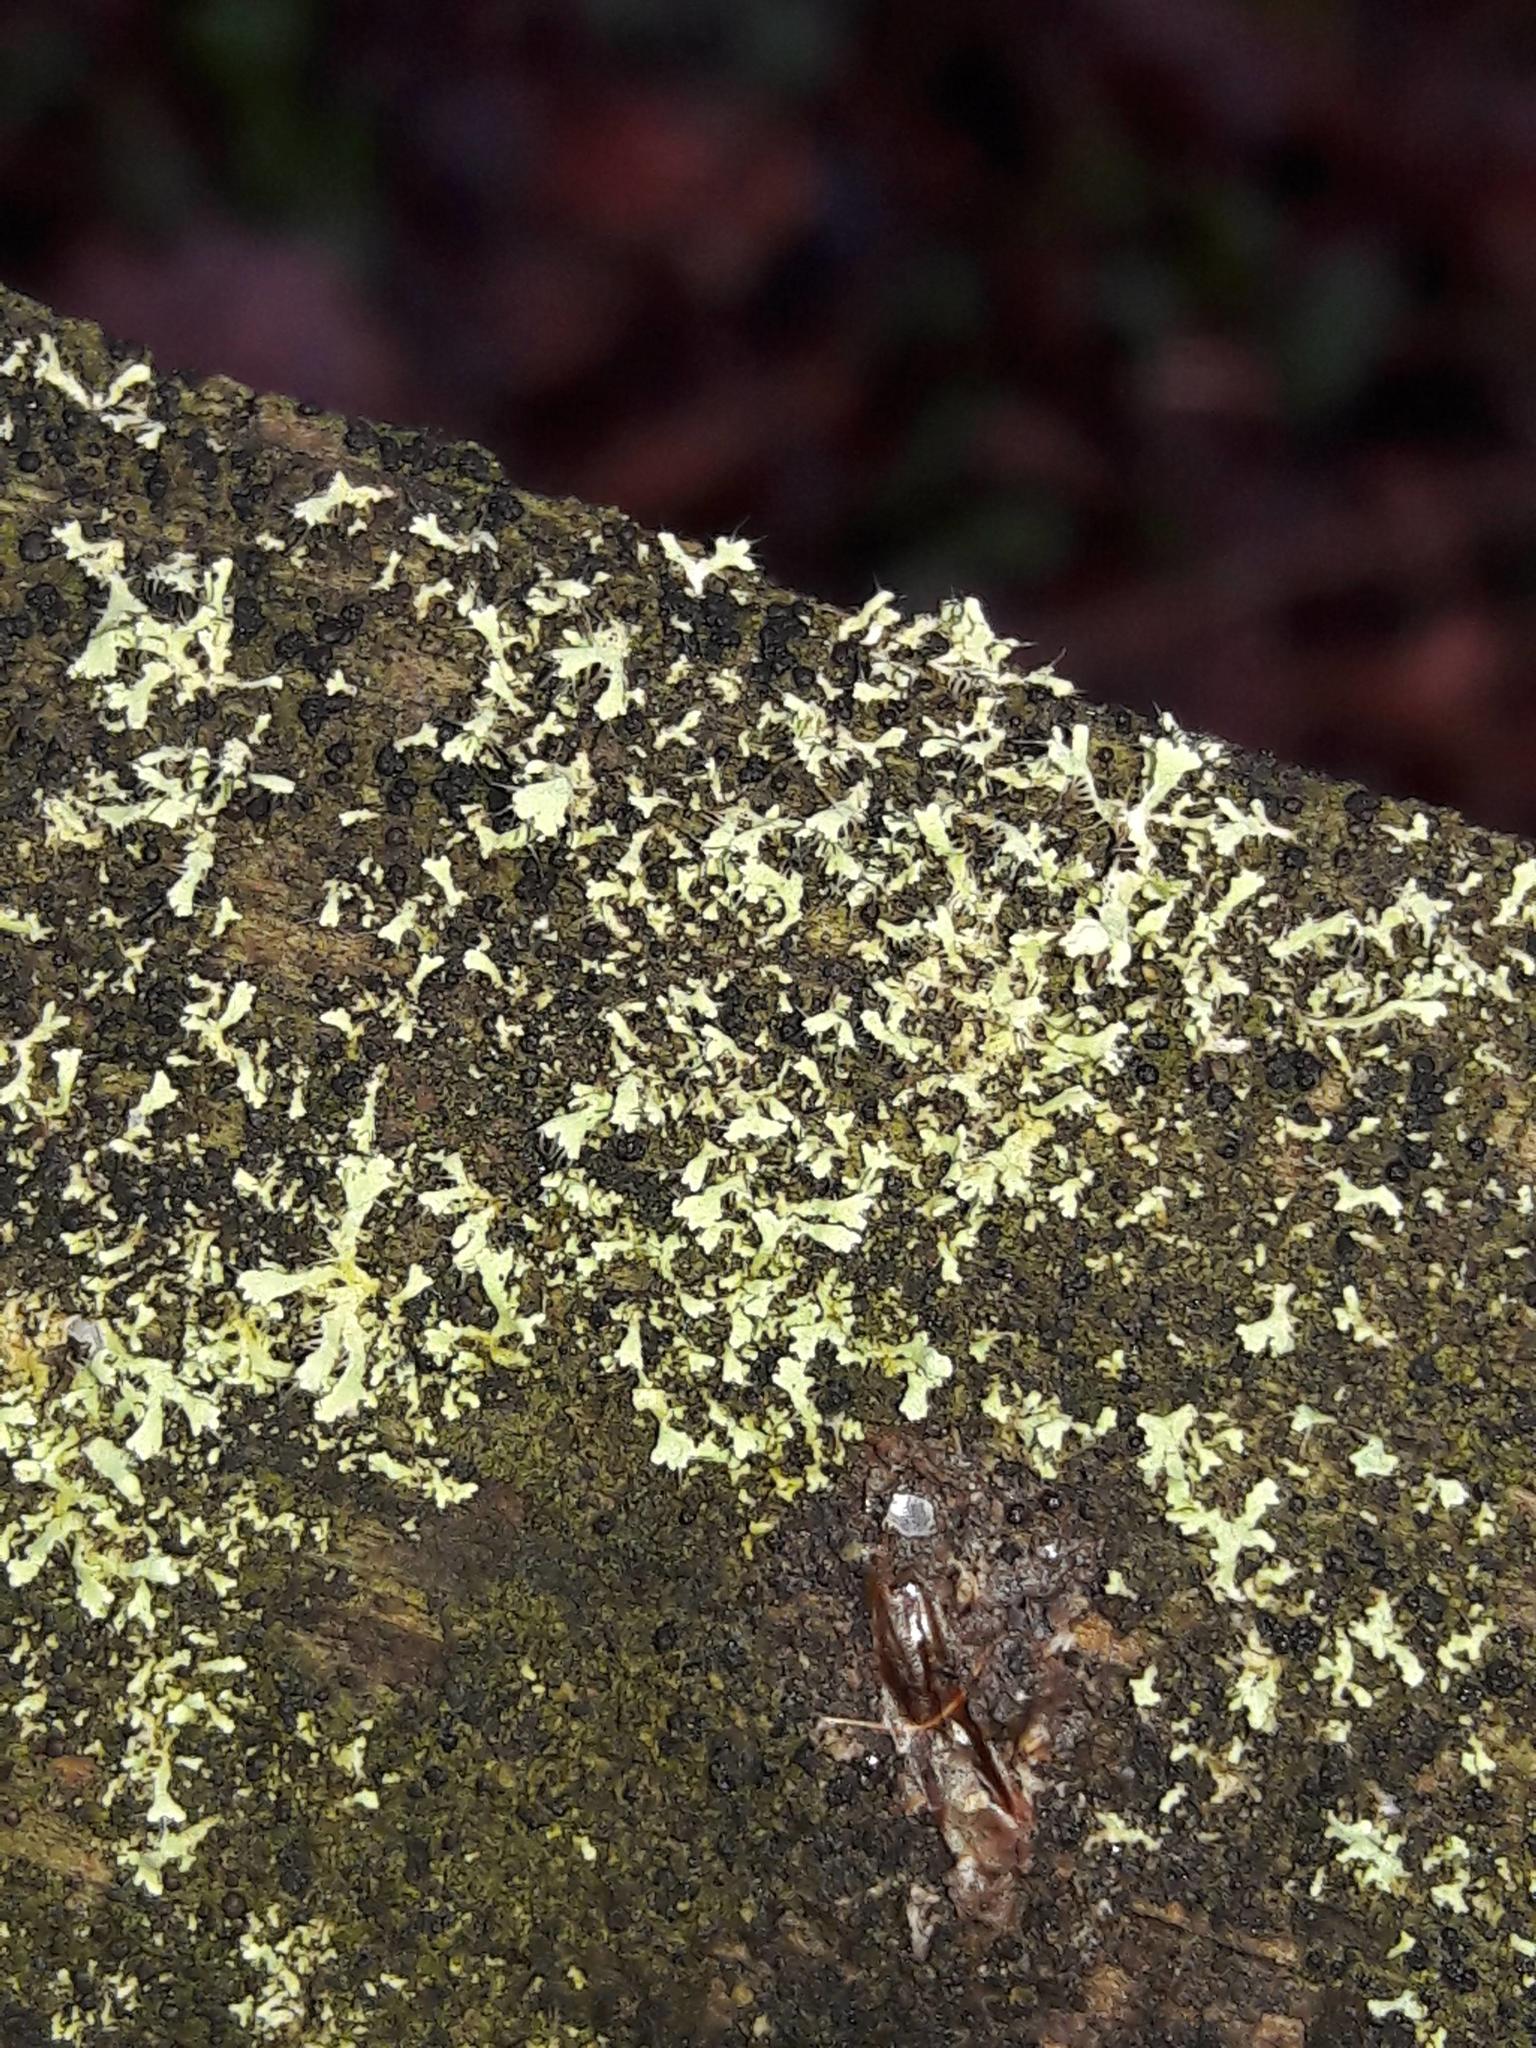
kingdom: Fungi
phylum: Ascomycota
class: Lecanoromycetes
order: Caliciales
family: Physciaceae
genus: Physcia
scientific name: Physcia adscendens
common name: Hooded rosette lichen
